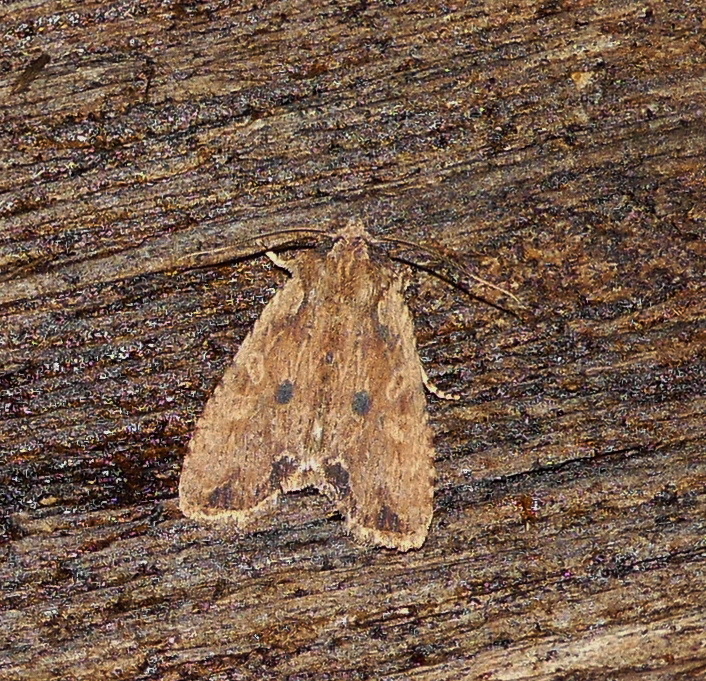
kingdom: Animalia
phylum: Arthropoda
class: Insecta
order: Lepidoptera
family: Noctuidae
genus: Lithophane
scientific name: Lithophane hemina
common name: Hemina pinion moth
